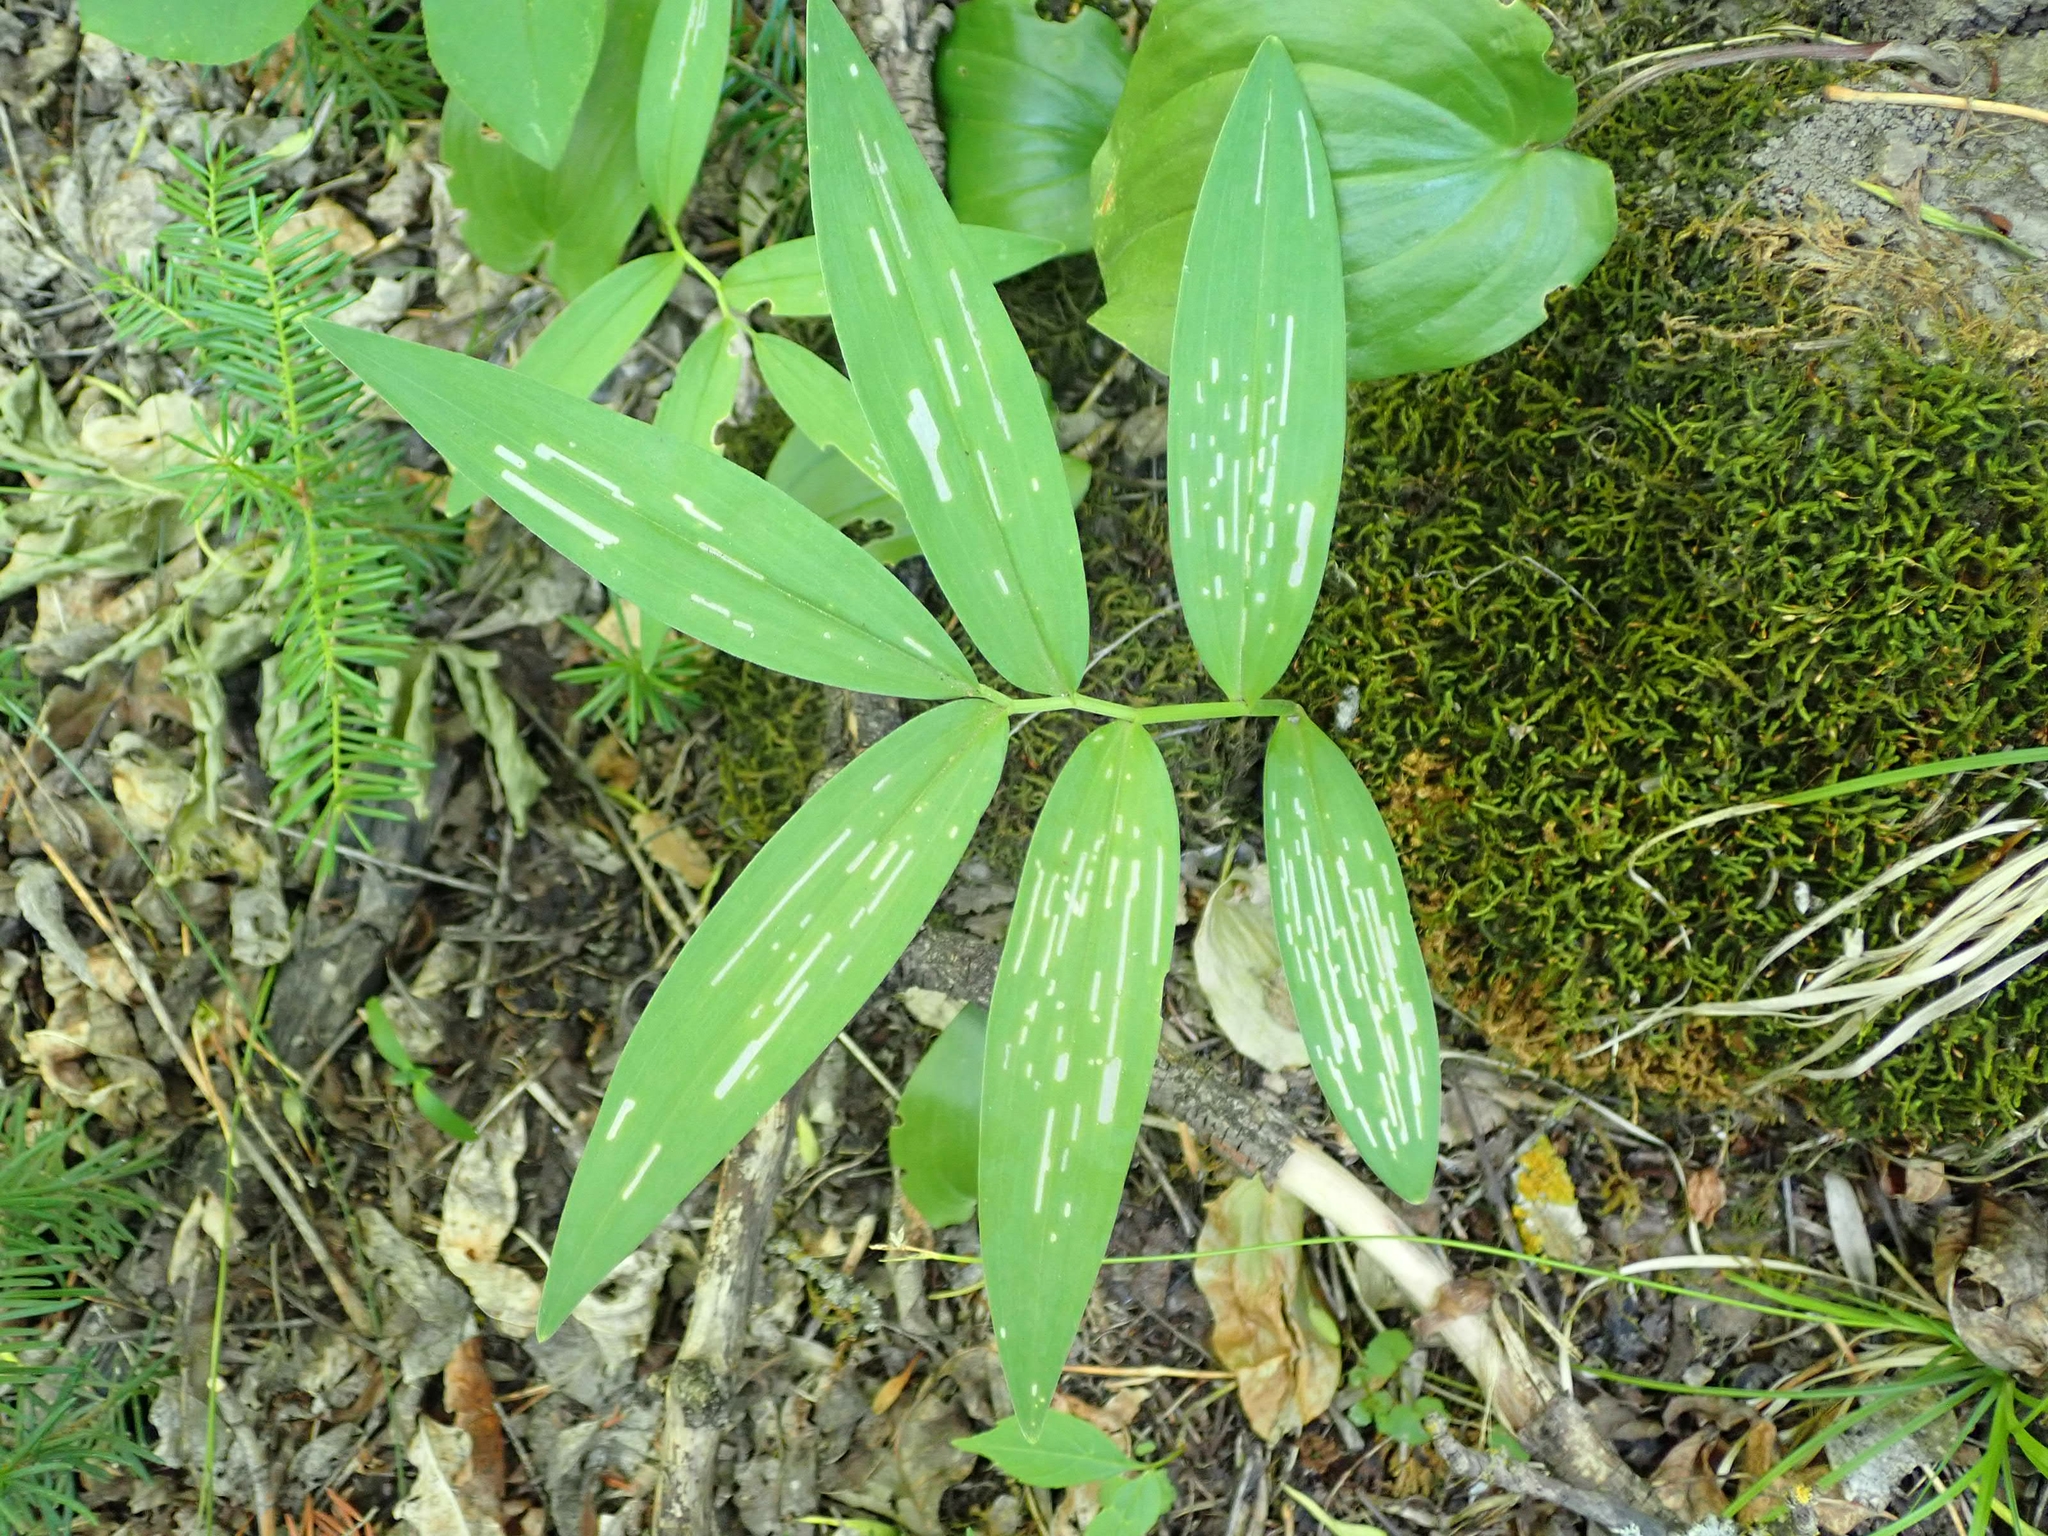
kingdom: Plantae
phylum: Tracheophyta
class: Liliopsida
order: Asparagales
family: Asparagaceae
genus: Maianthemum
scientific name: Maianthemum stellatum
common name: Little false solomon's seal
